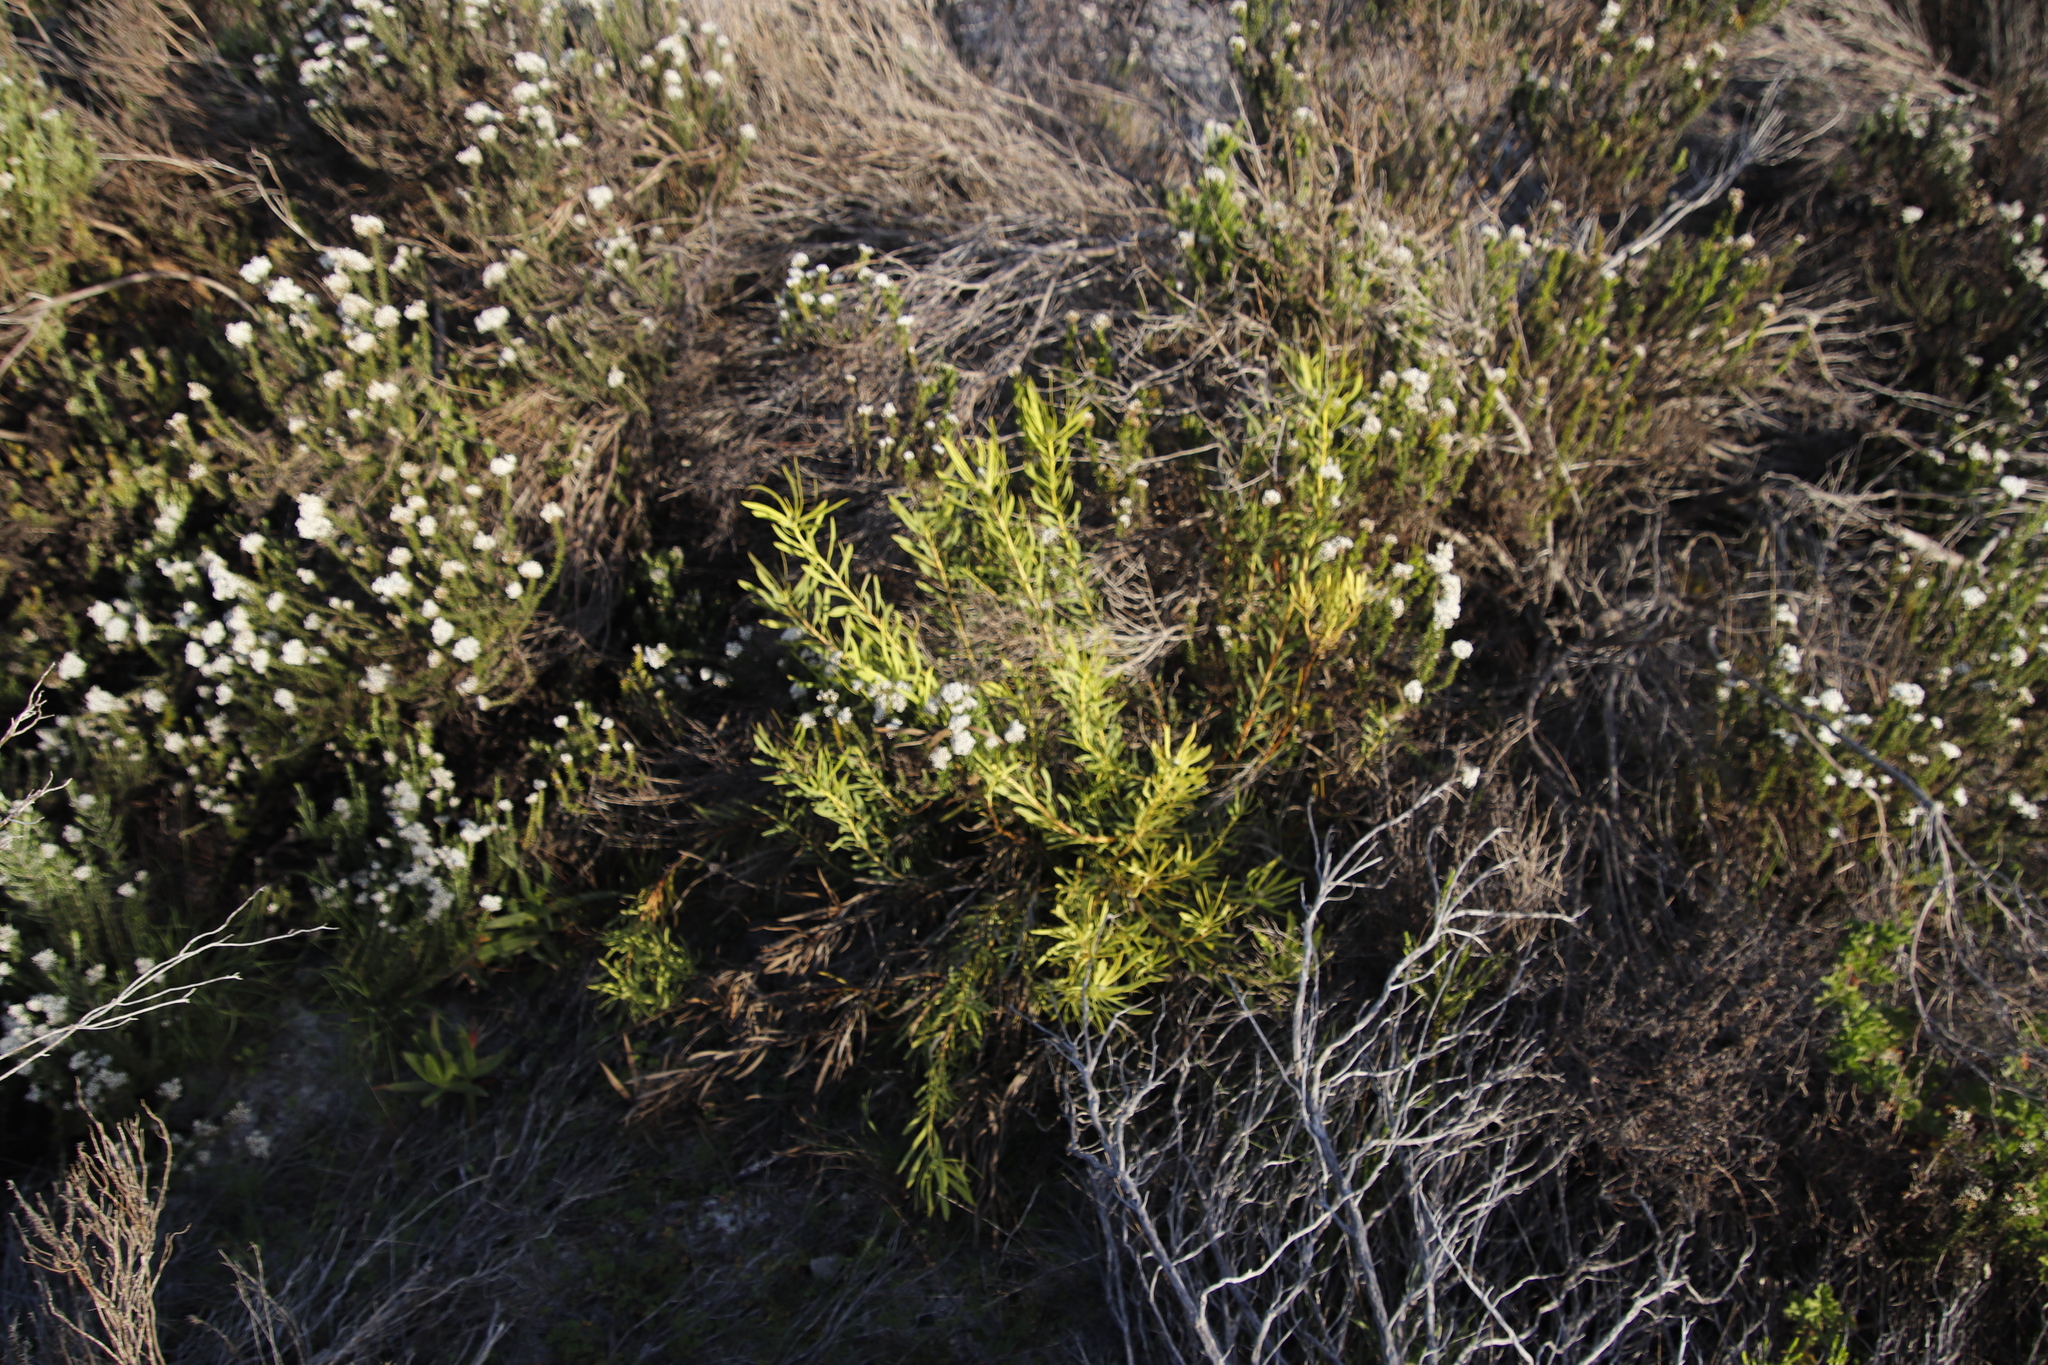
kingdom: Plantae
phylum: Tracheophyta
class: Magnoliopsida
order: Proteales
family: Proteaceae
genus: Leucadendron
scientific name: Leucadendron salignum
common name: Common sunshine conebush
